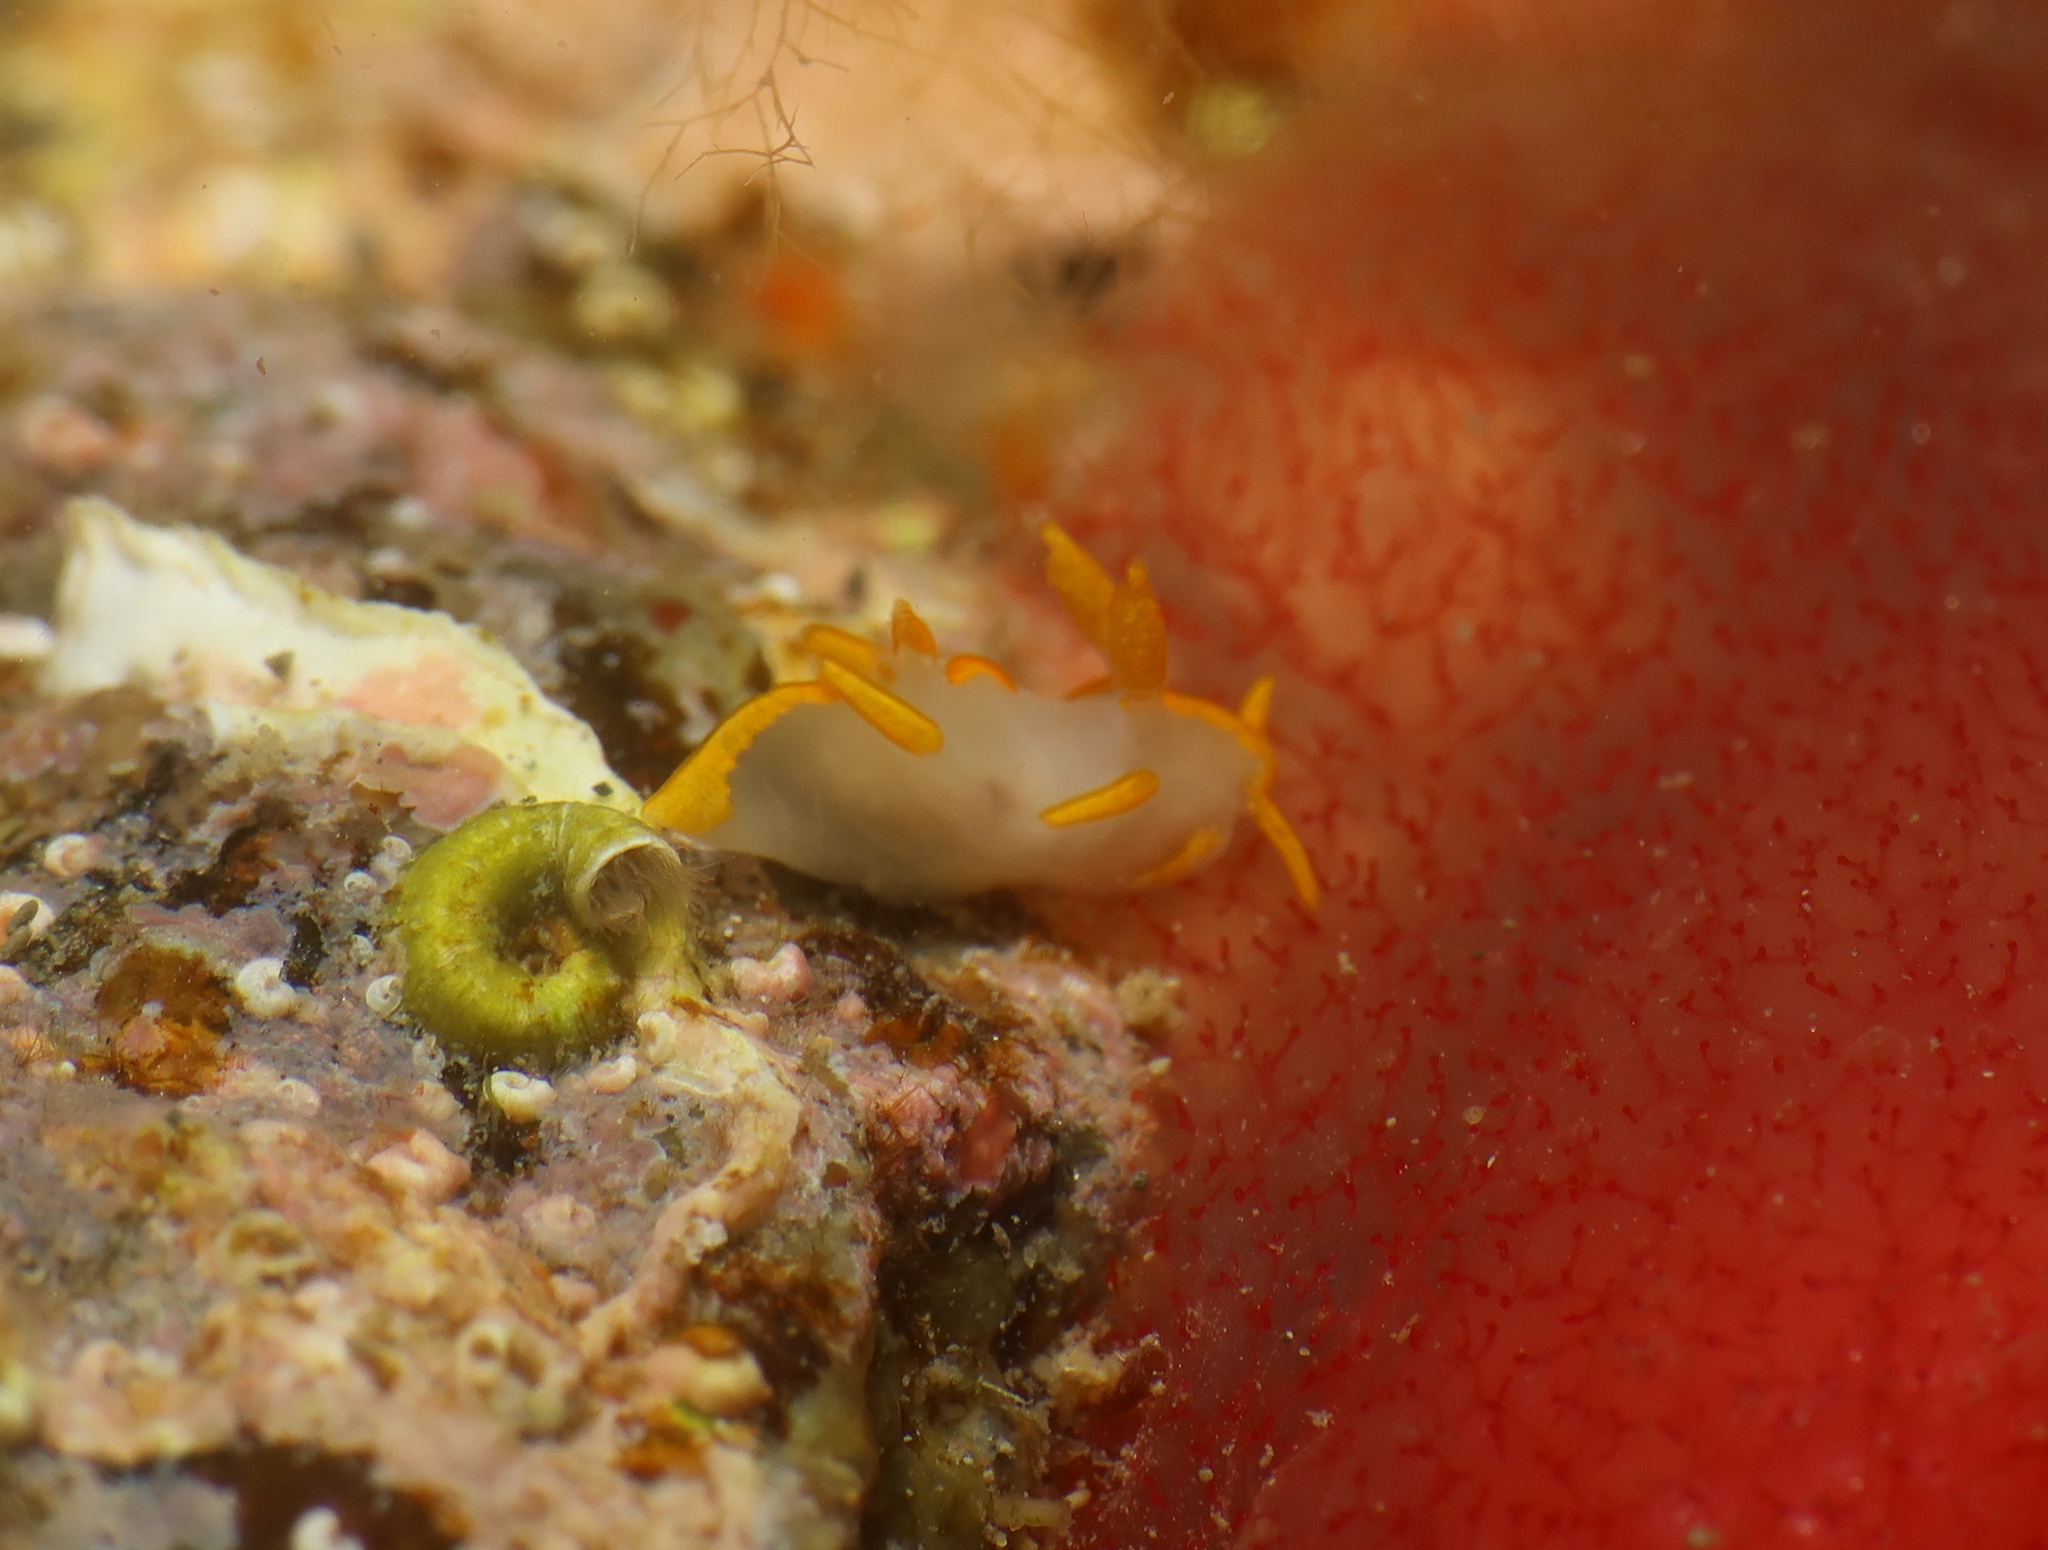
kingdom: Animalia
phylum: Mollusca
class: Gastropoda
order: Nudibranchia
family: Goniodorididae
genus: Trapania
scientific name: Trapania maculata
